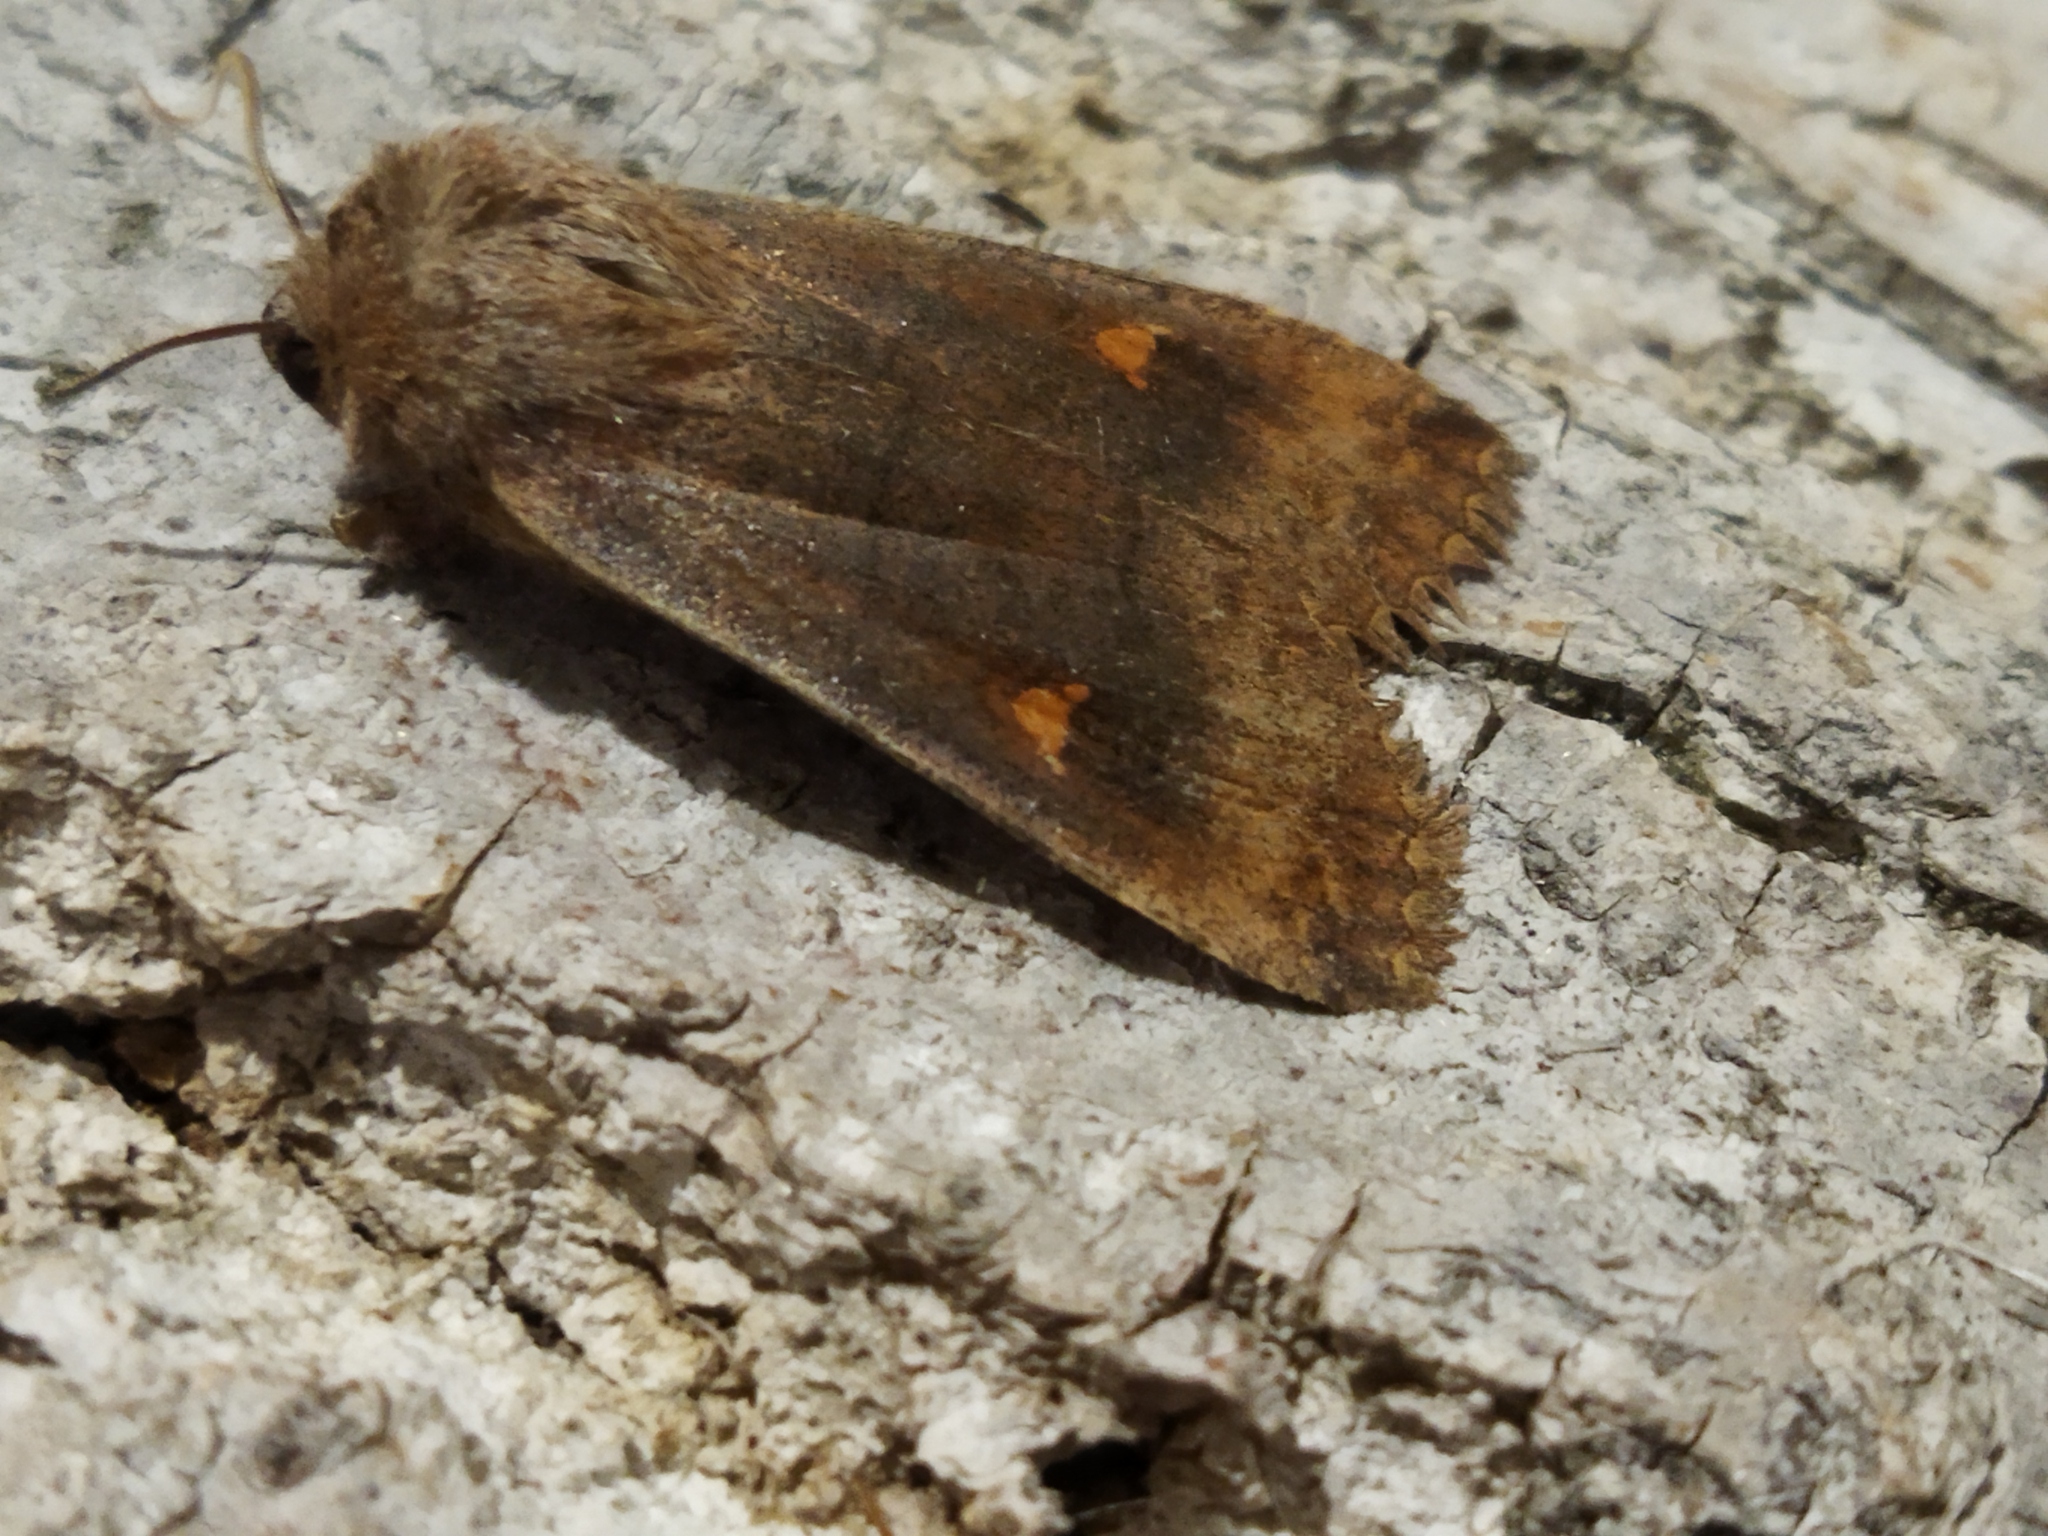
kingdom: Animalia
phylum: Arthropoda
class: Insecta
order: Lepidoptera
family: Noctuidae
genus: Eupsilia
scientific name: Eupsilia transversa
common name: Satellite
